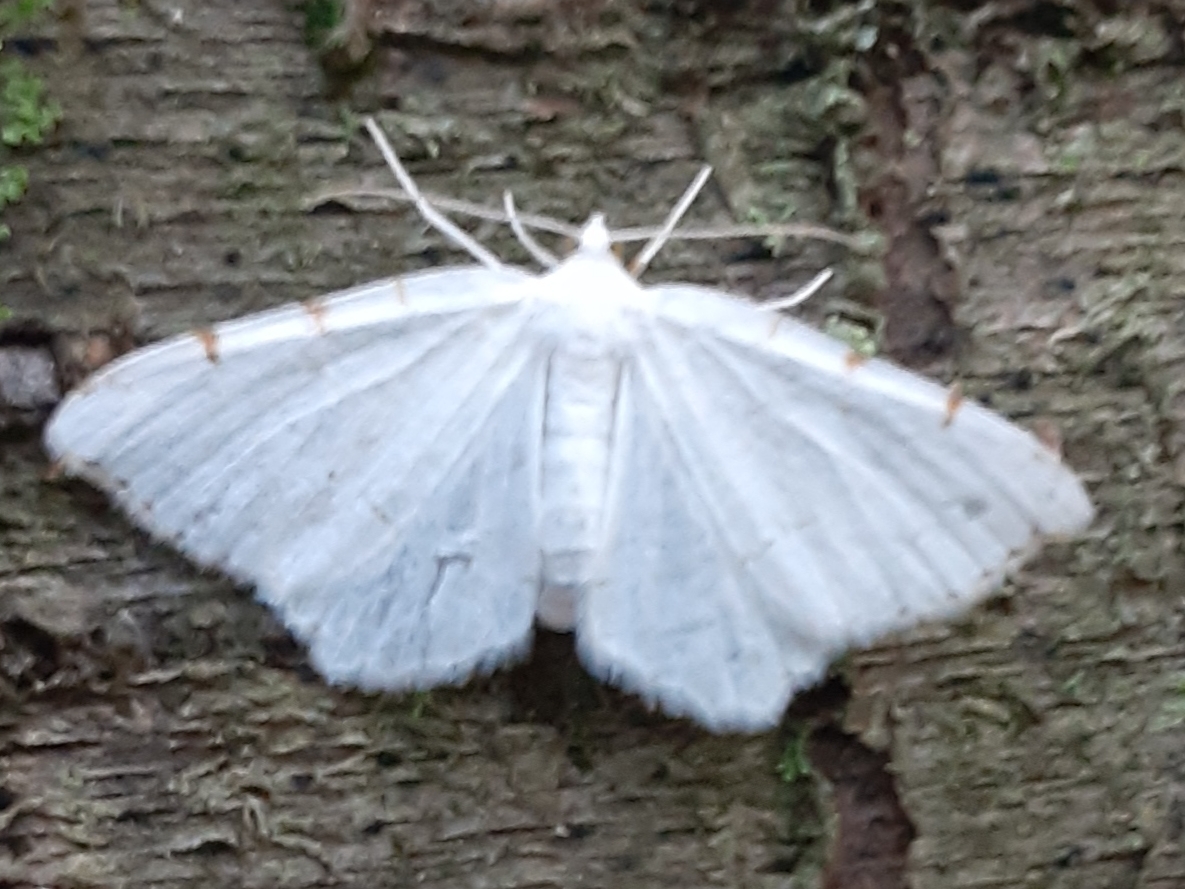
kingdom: Animalia
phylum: Arthropoda
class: Insecta
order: Lepidoptera
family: Geometridae
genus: Macaria
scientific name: Macaria pustularia
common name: Lesser maple spanworm moth
